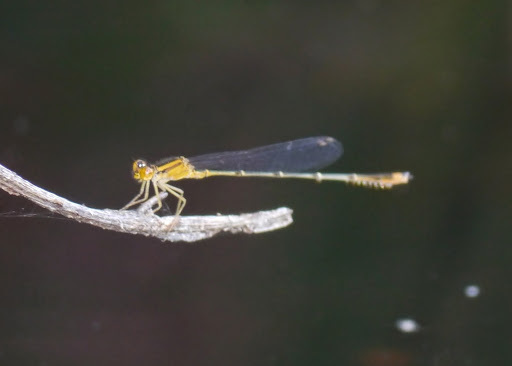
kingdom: Animalia
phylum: Arthropoda
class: Insecta
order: Odonata
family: Coenagrionidae
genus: Enallagma
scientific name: Enallagma signatum
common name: Orange bluet
